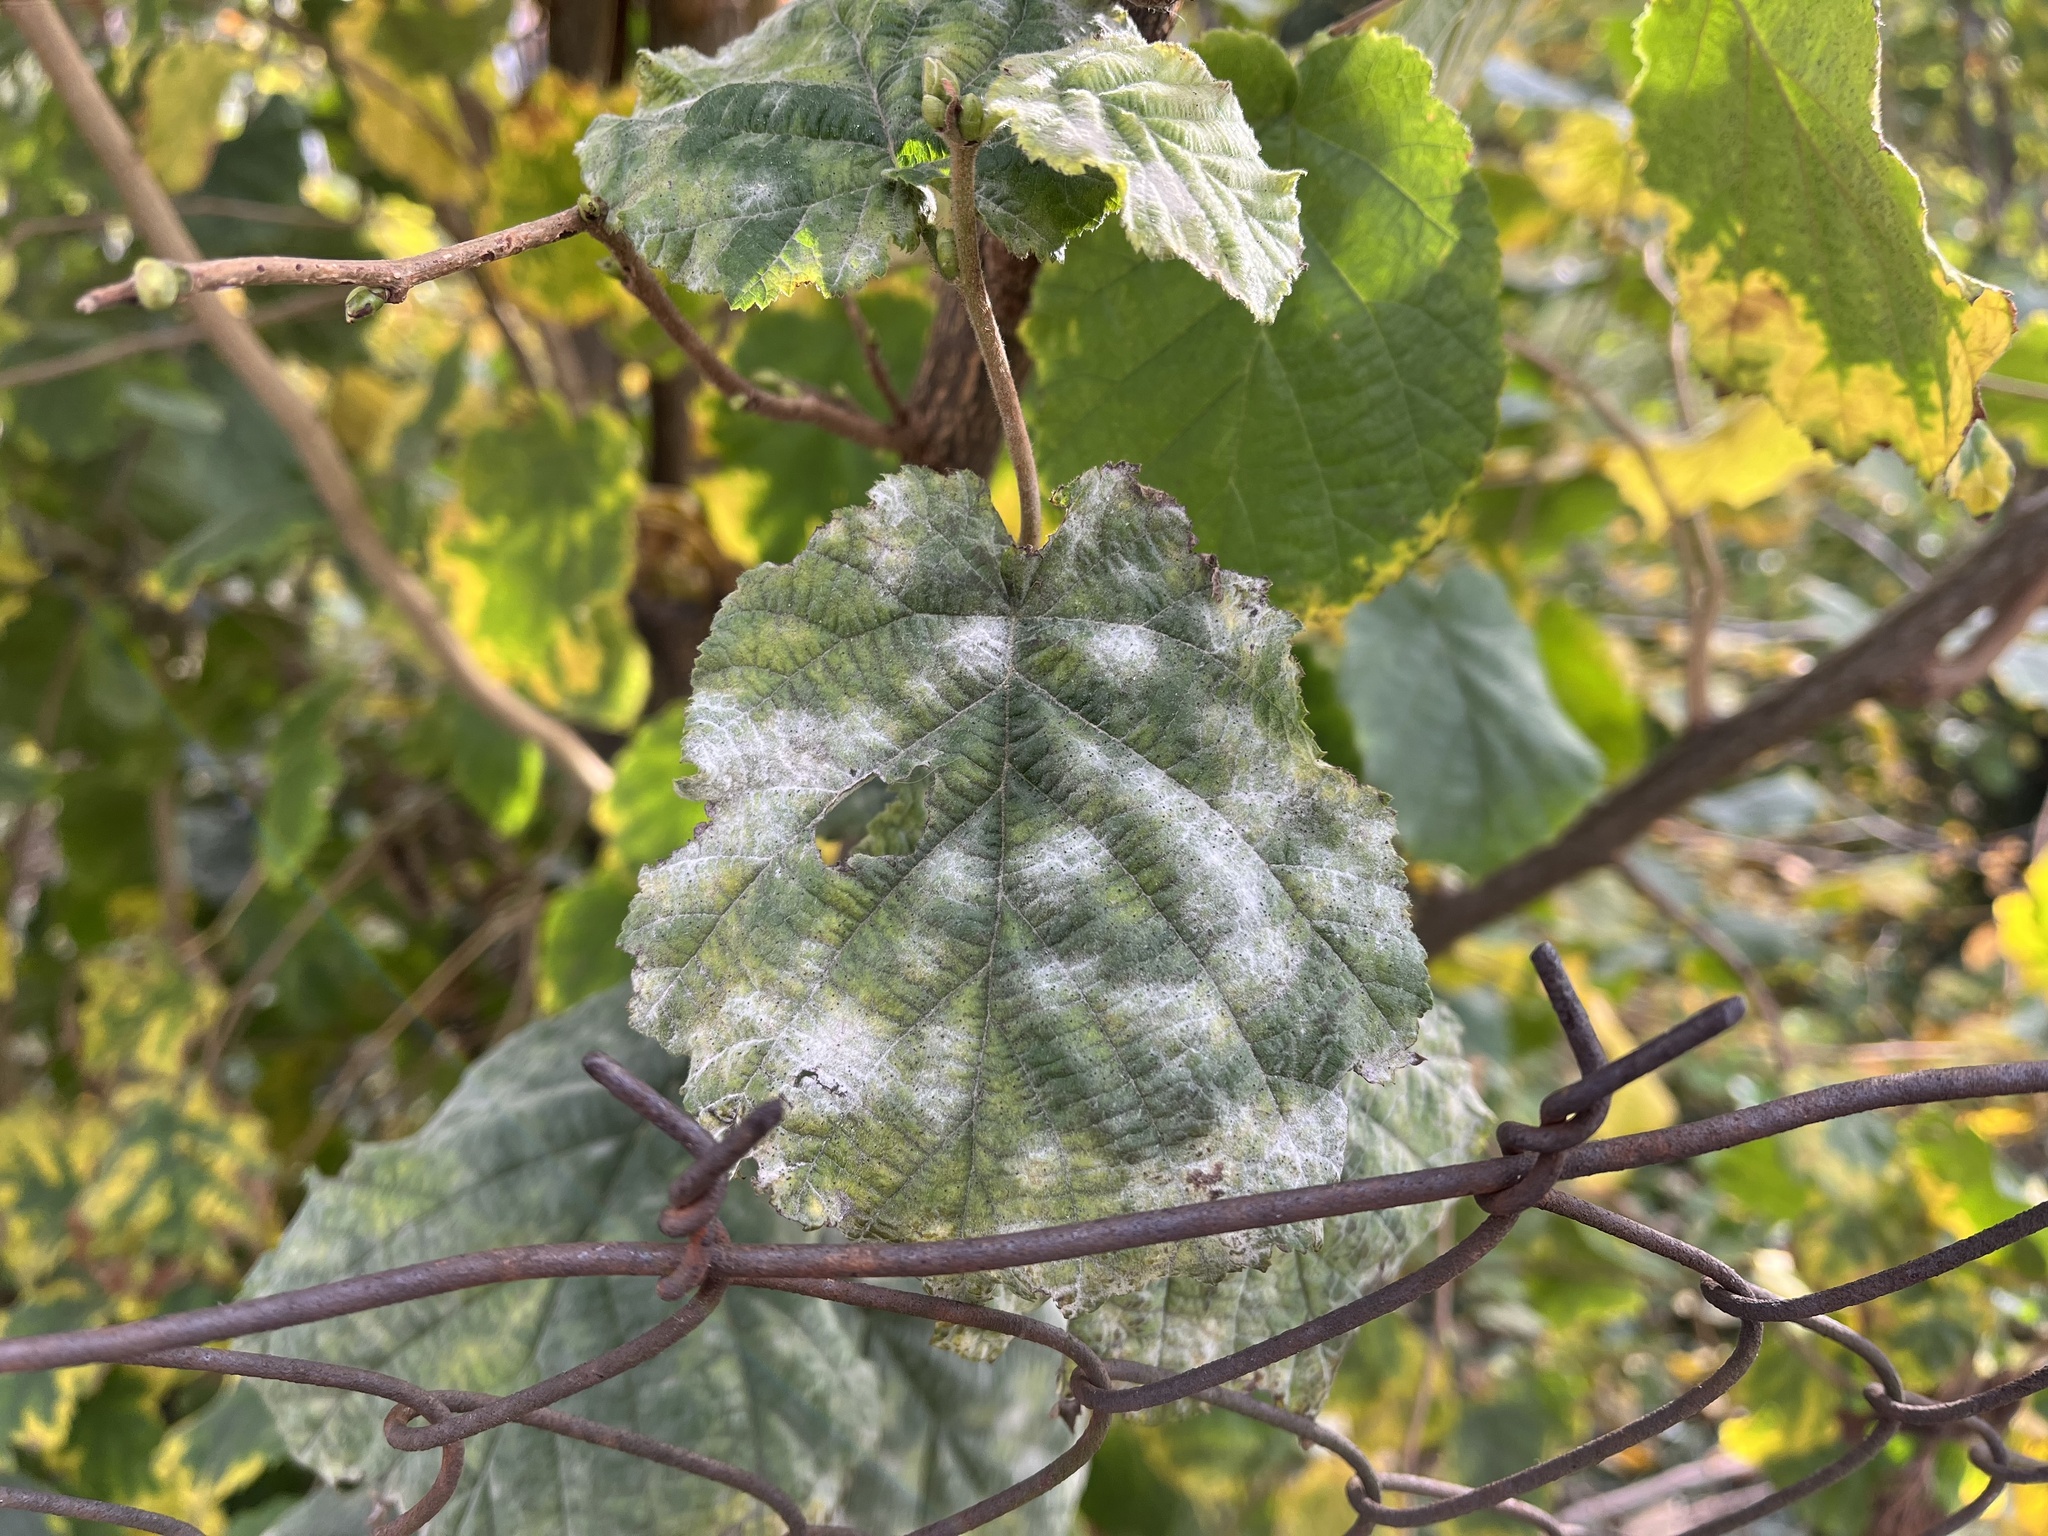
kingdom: Fungi
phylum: Ascomycota
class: Leotiomycetes
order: Helotiales
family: Erysiphaceae
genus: Erysiphe
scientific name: Erysiphe corylacearum
